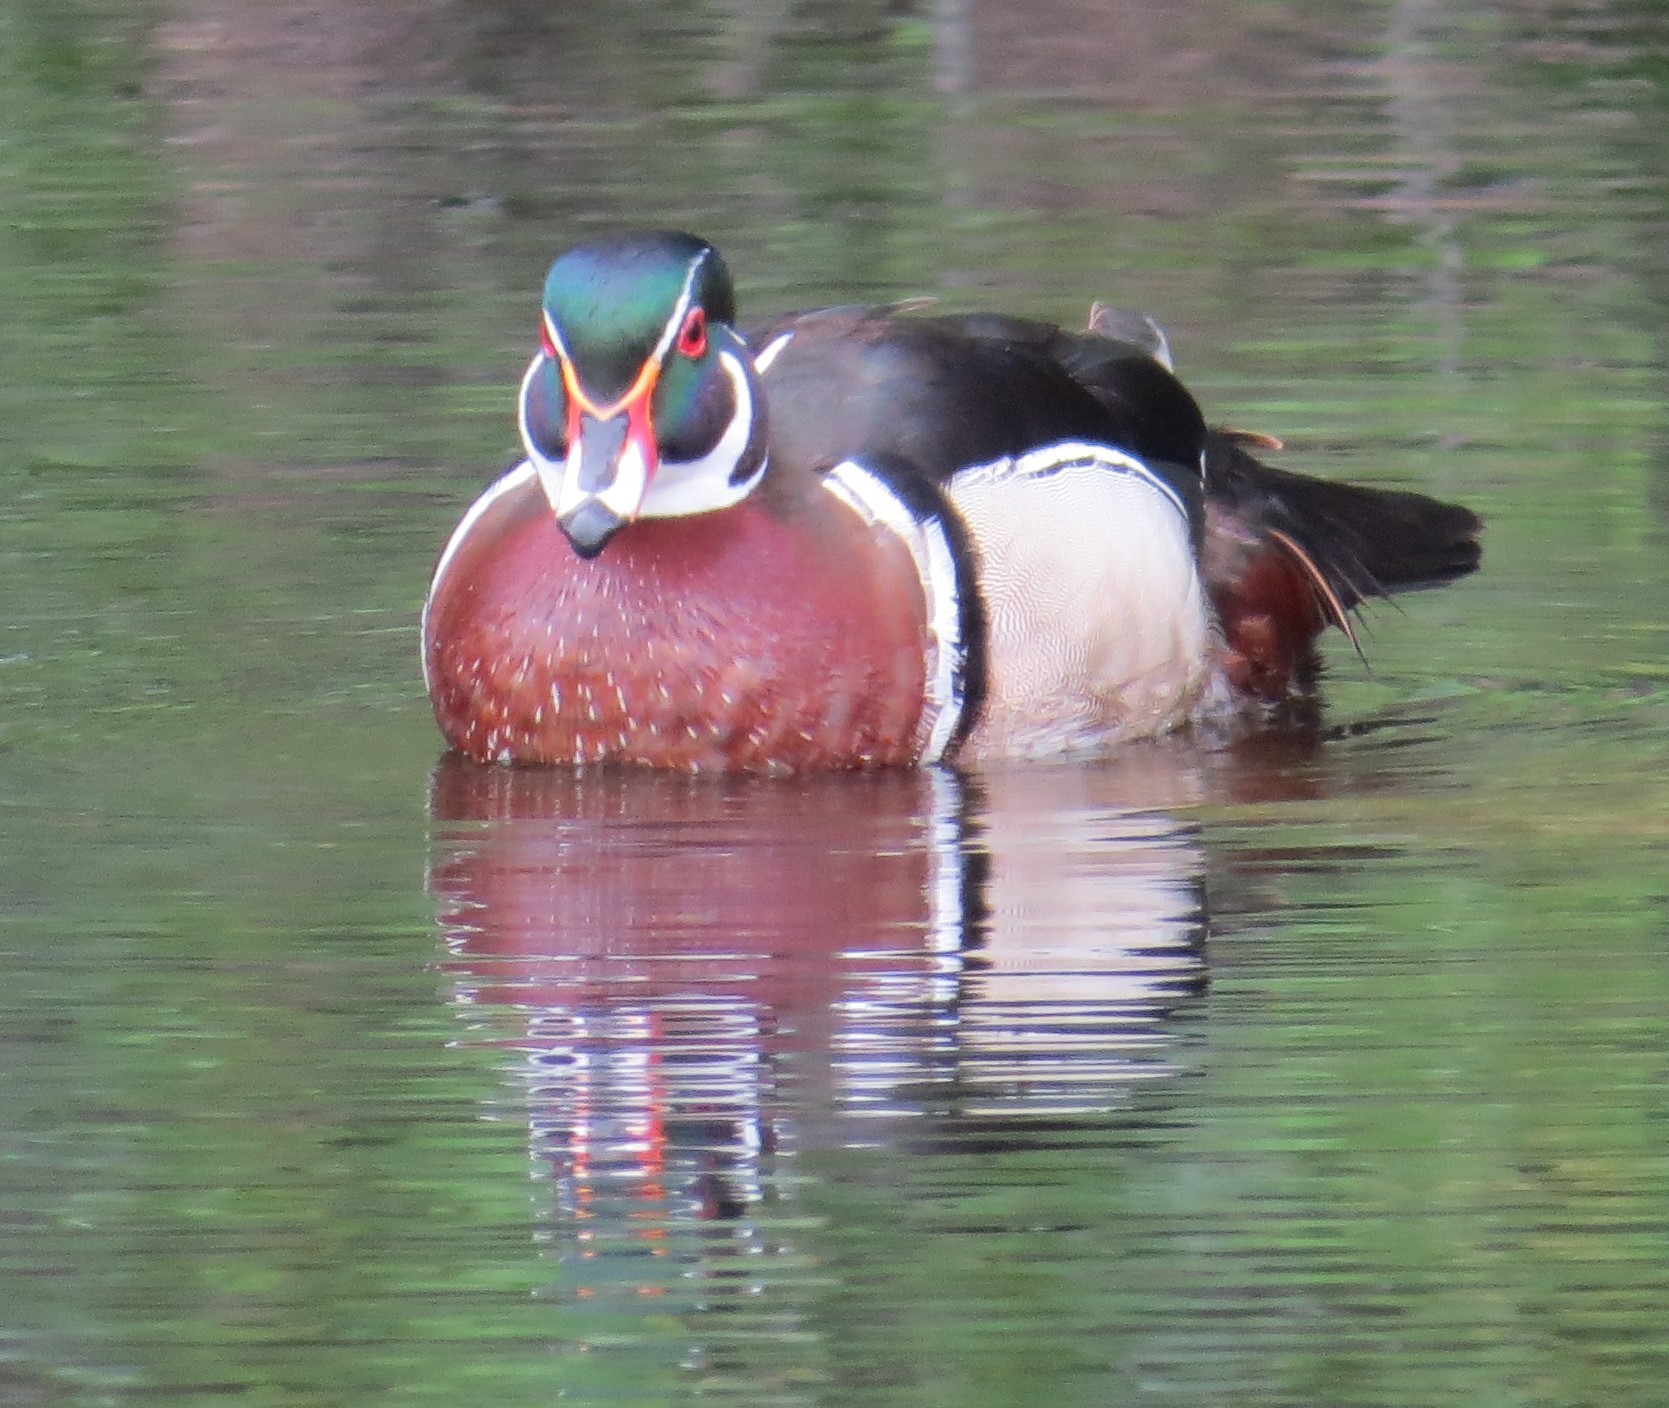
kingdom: Animalia
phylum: Chordata
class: Aves
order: Anseriformes
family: Anatidae
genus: Aix
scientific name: Aix sponsa
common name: Wood duck
